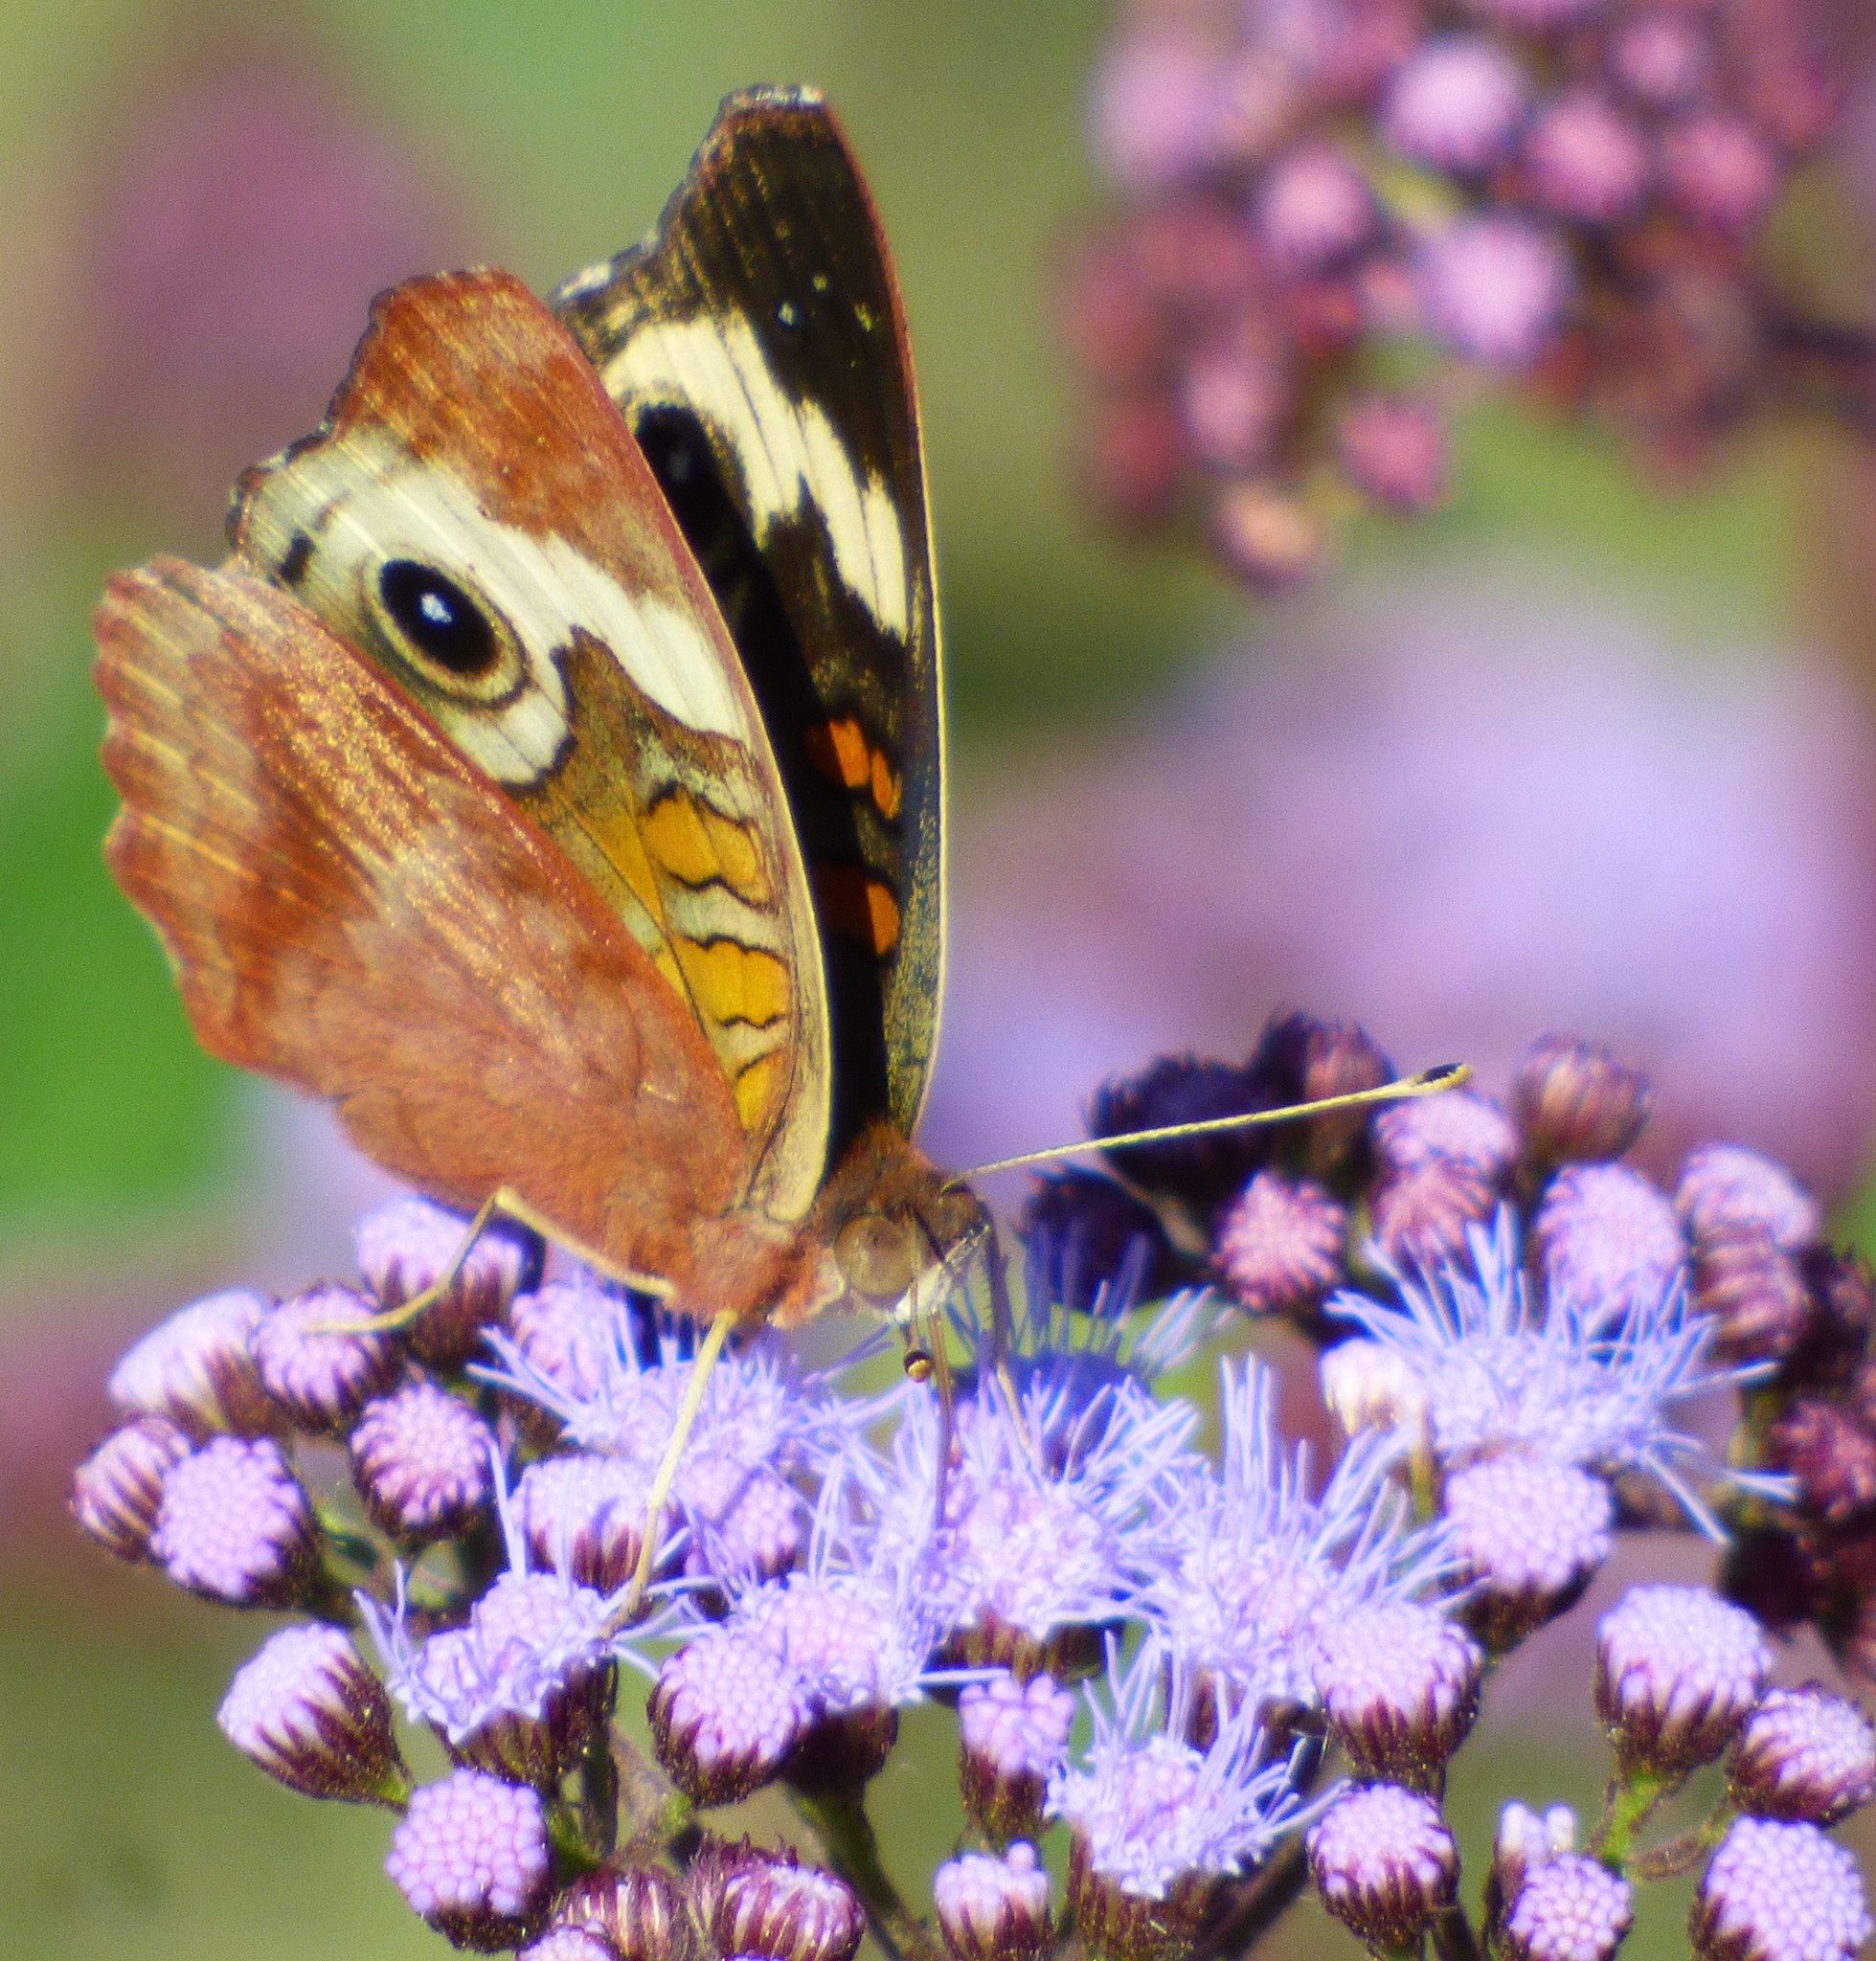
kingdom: Animalia
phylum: Arthropoda
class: Insecta
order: Lepidoptera
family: Nymphalidae
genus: Junonia
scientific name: Junonia coenia
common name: Common buckeye
